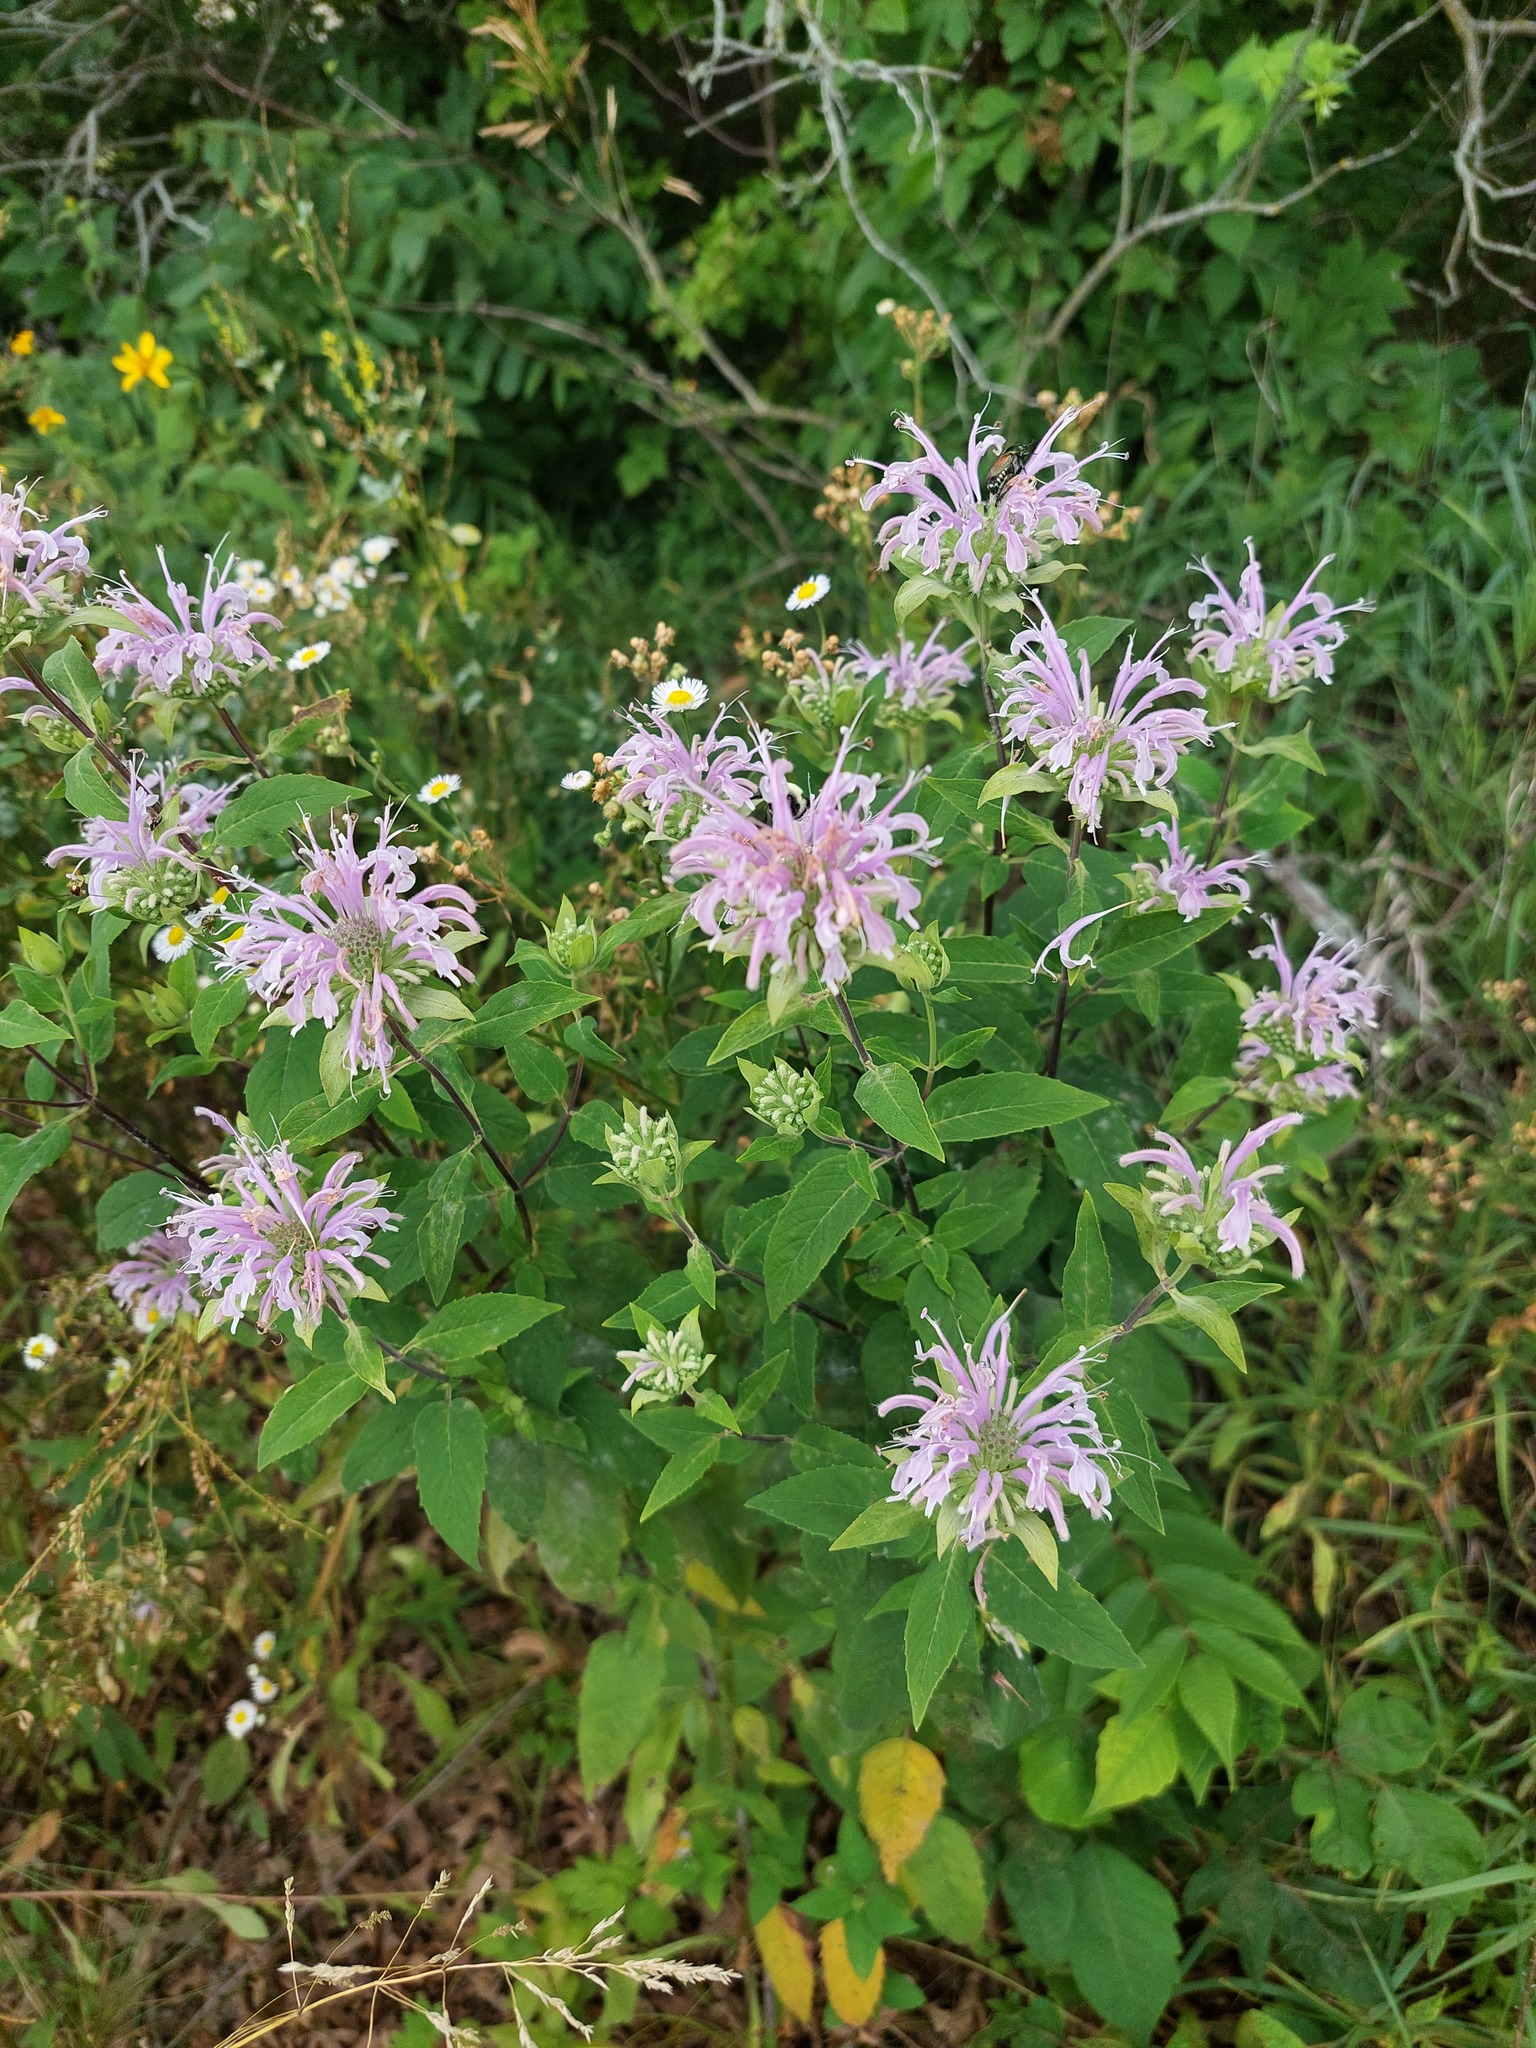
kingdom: Plantae
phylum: Tracheophyta
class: Magnoliopsida
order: Lamiales
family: Lamiaceae
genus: Monarda
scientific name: Monarda fistulosa
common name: Purple beebalm
